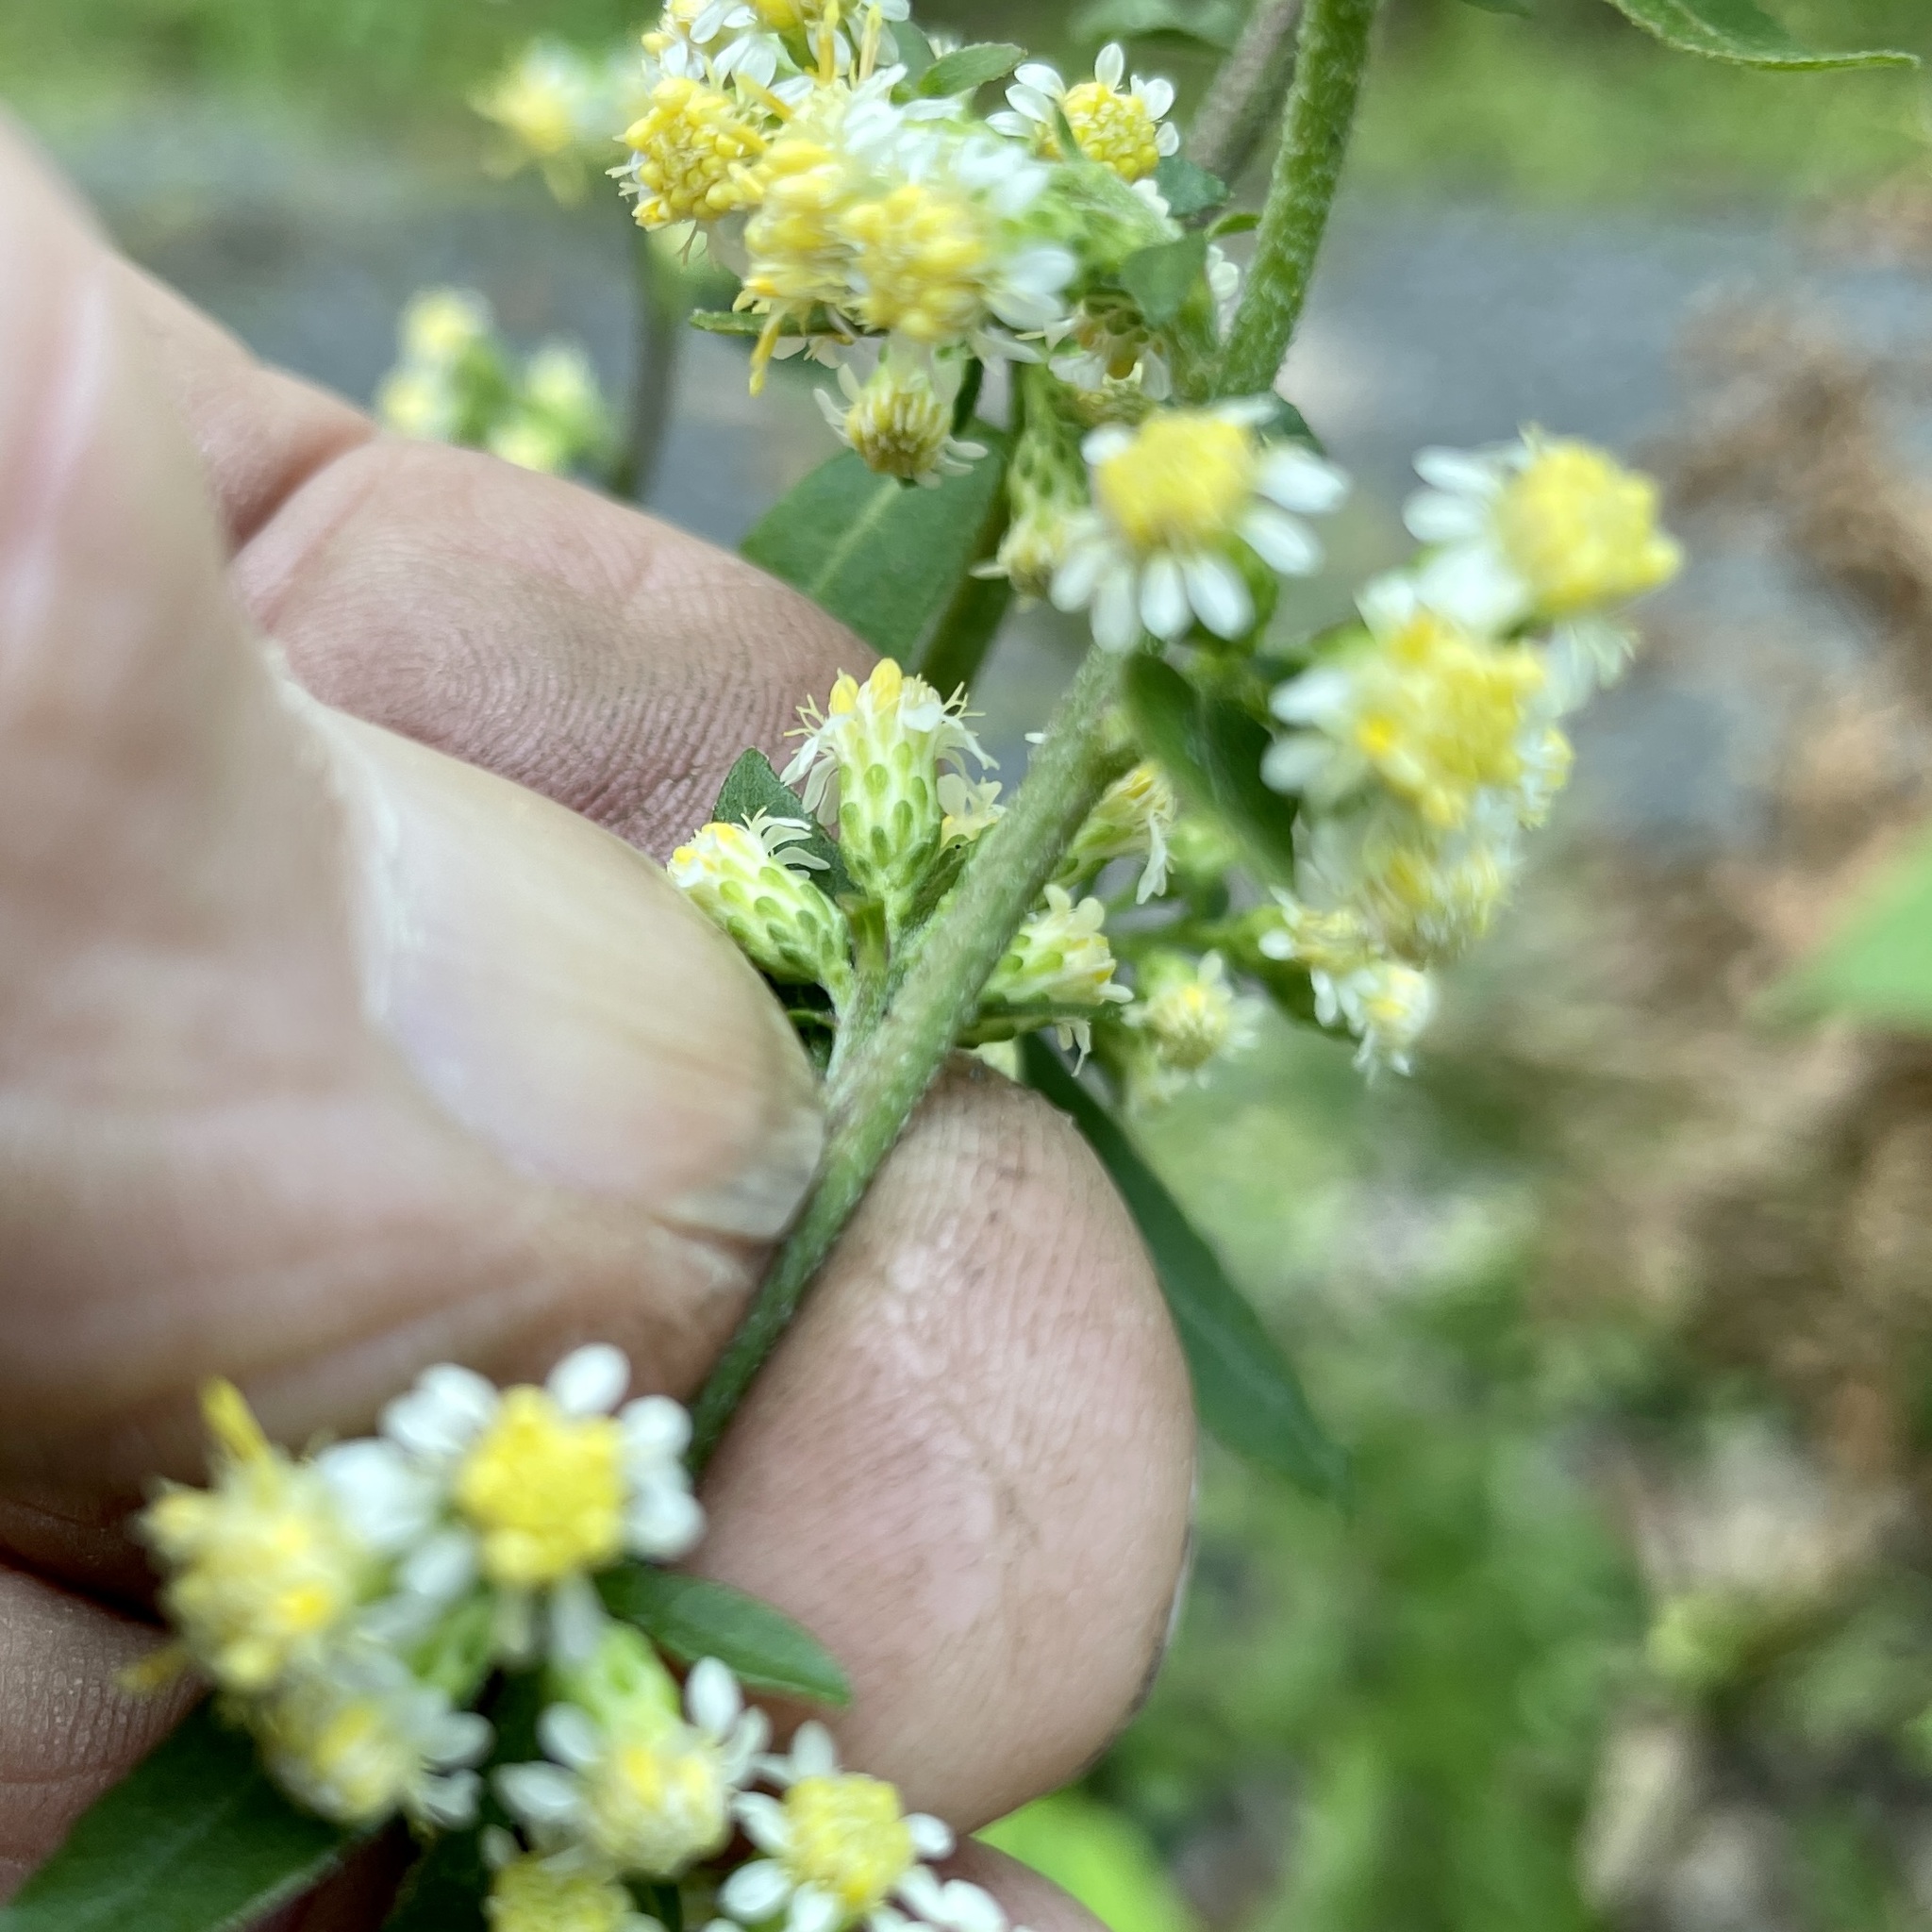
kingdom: Plantae
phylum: Tracheophyta
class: Magnoliopsida
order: Asterales
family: Asteraceae
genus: Solidago
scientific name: Solidago bicolor
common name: Silverrod
